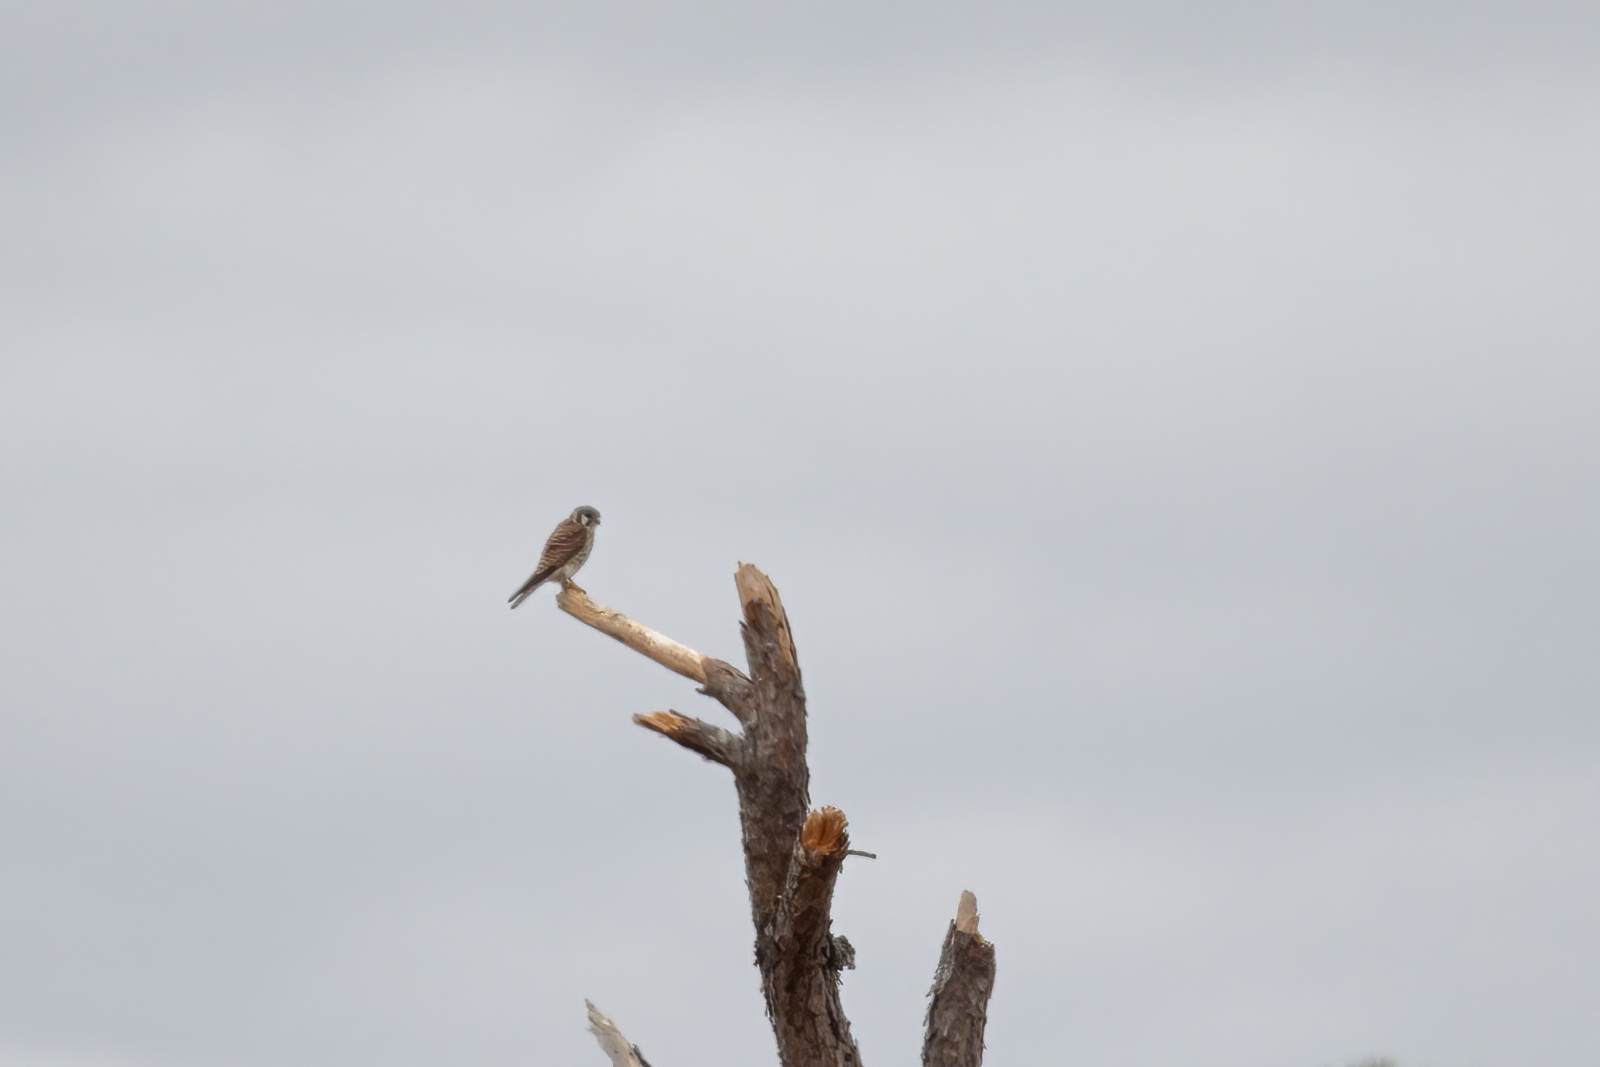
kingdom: Animalia
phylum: Chordata
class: Aves
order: Falconiformes
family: Falconidae
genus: Falco
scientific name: Falco sparverius
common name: American kestrel
